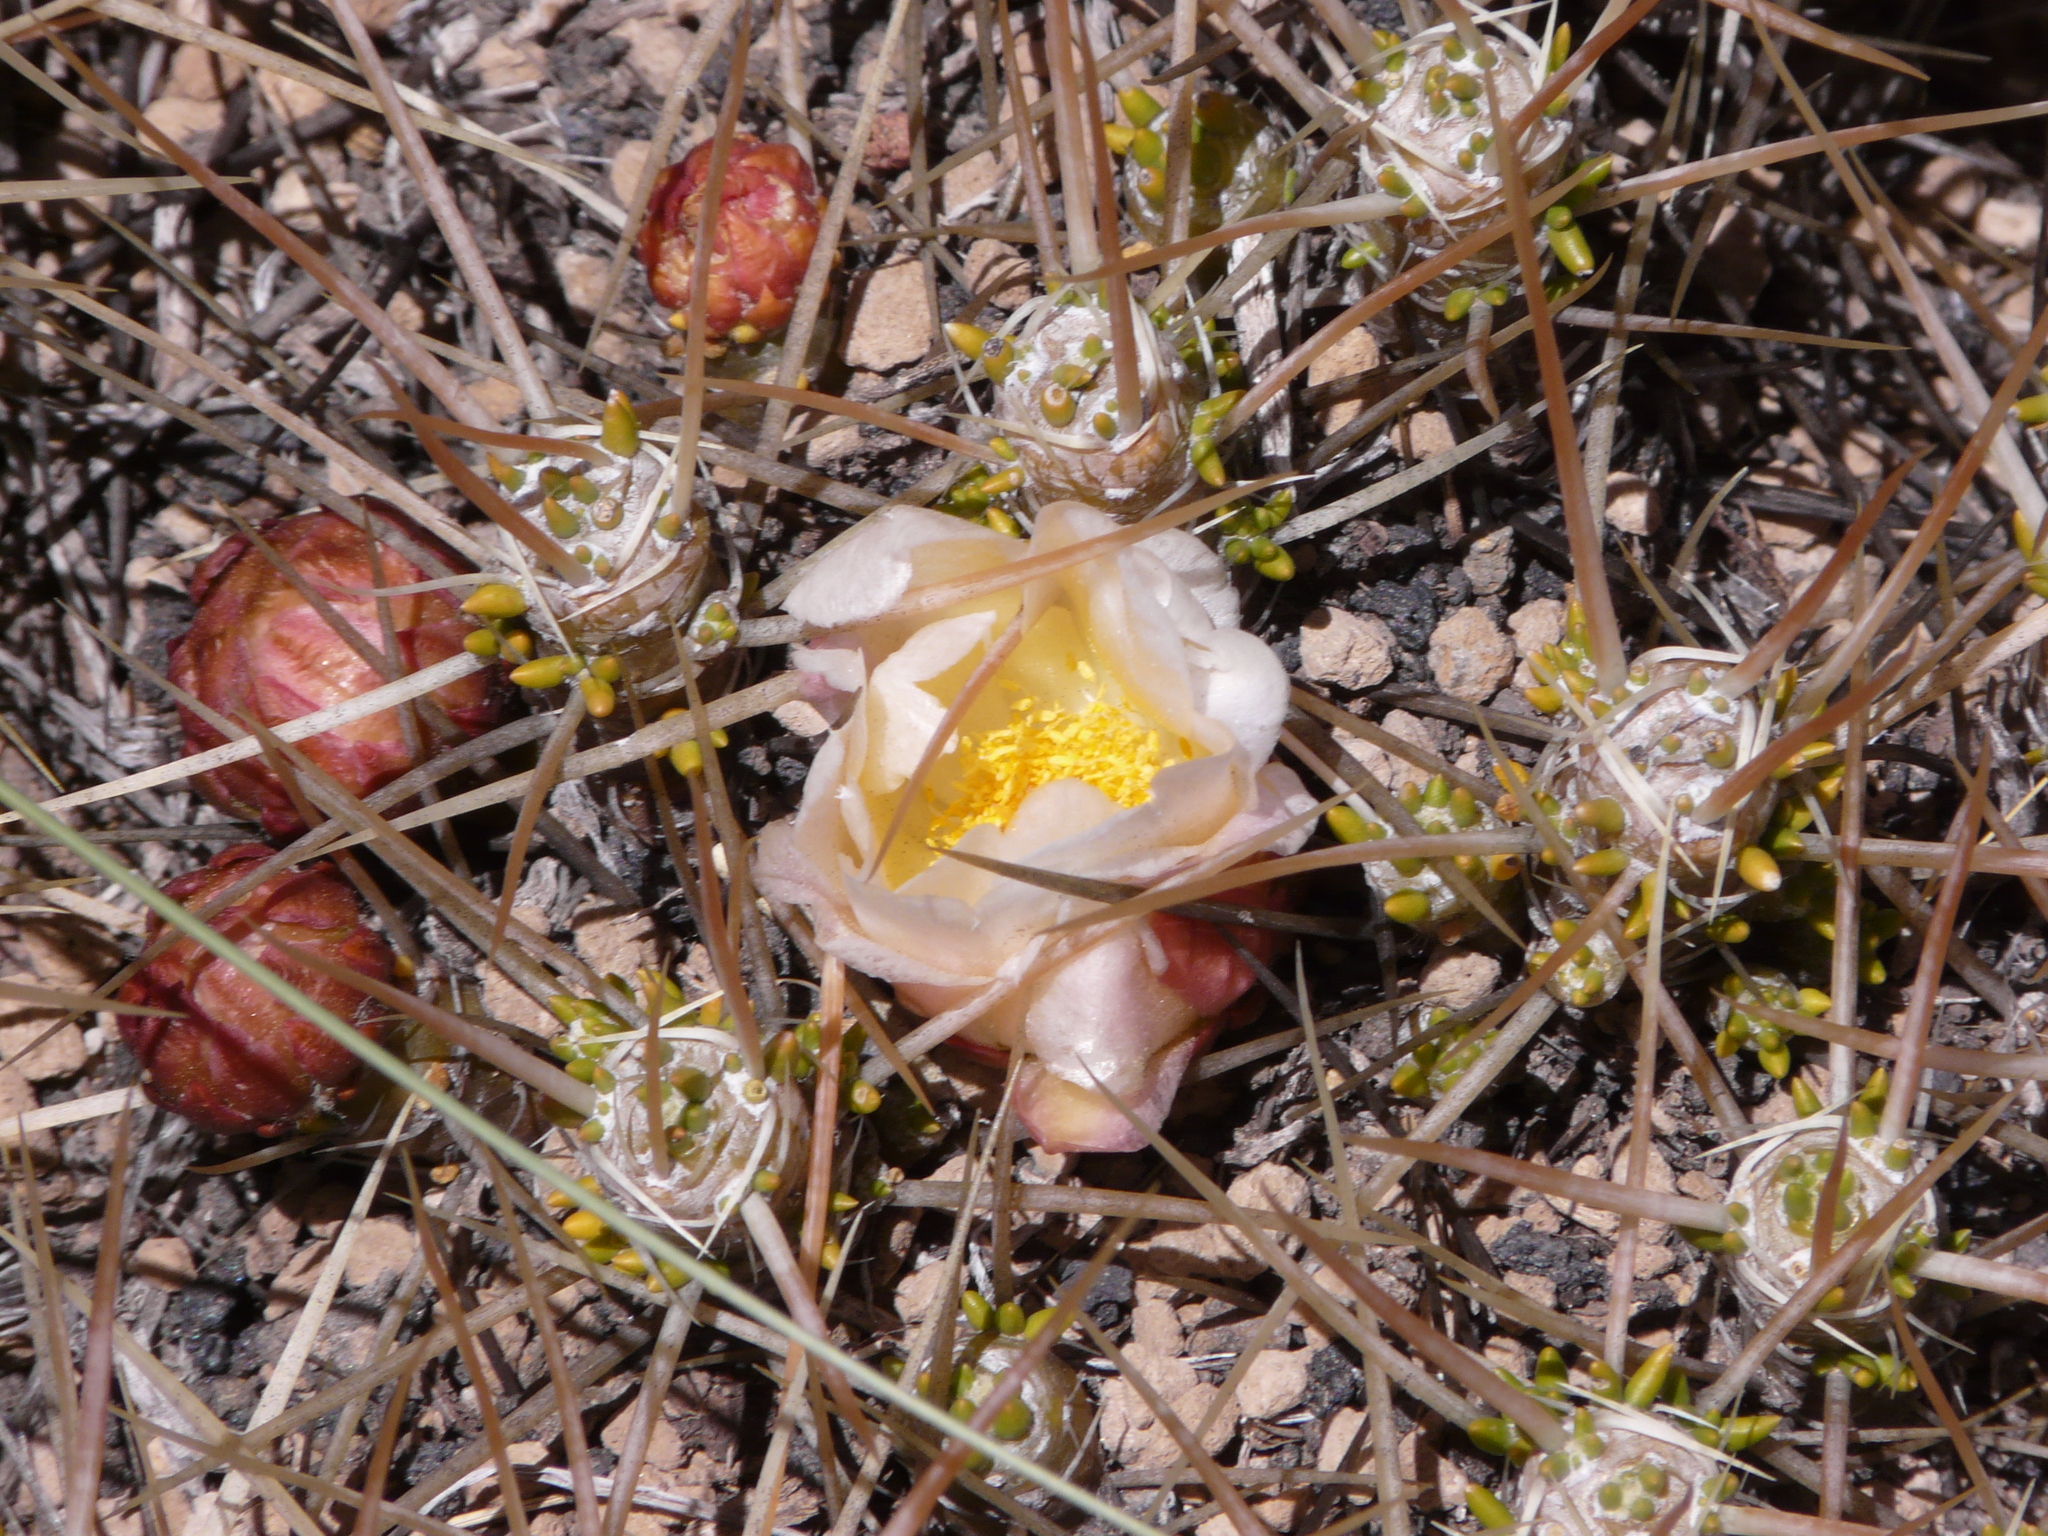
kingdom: Plantae
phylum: Tracheophyta
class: Magnoliopsida
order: Caryophyllales
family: Cactaceae
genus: Maihuenia
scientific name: Maihuenia patagonica
